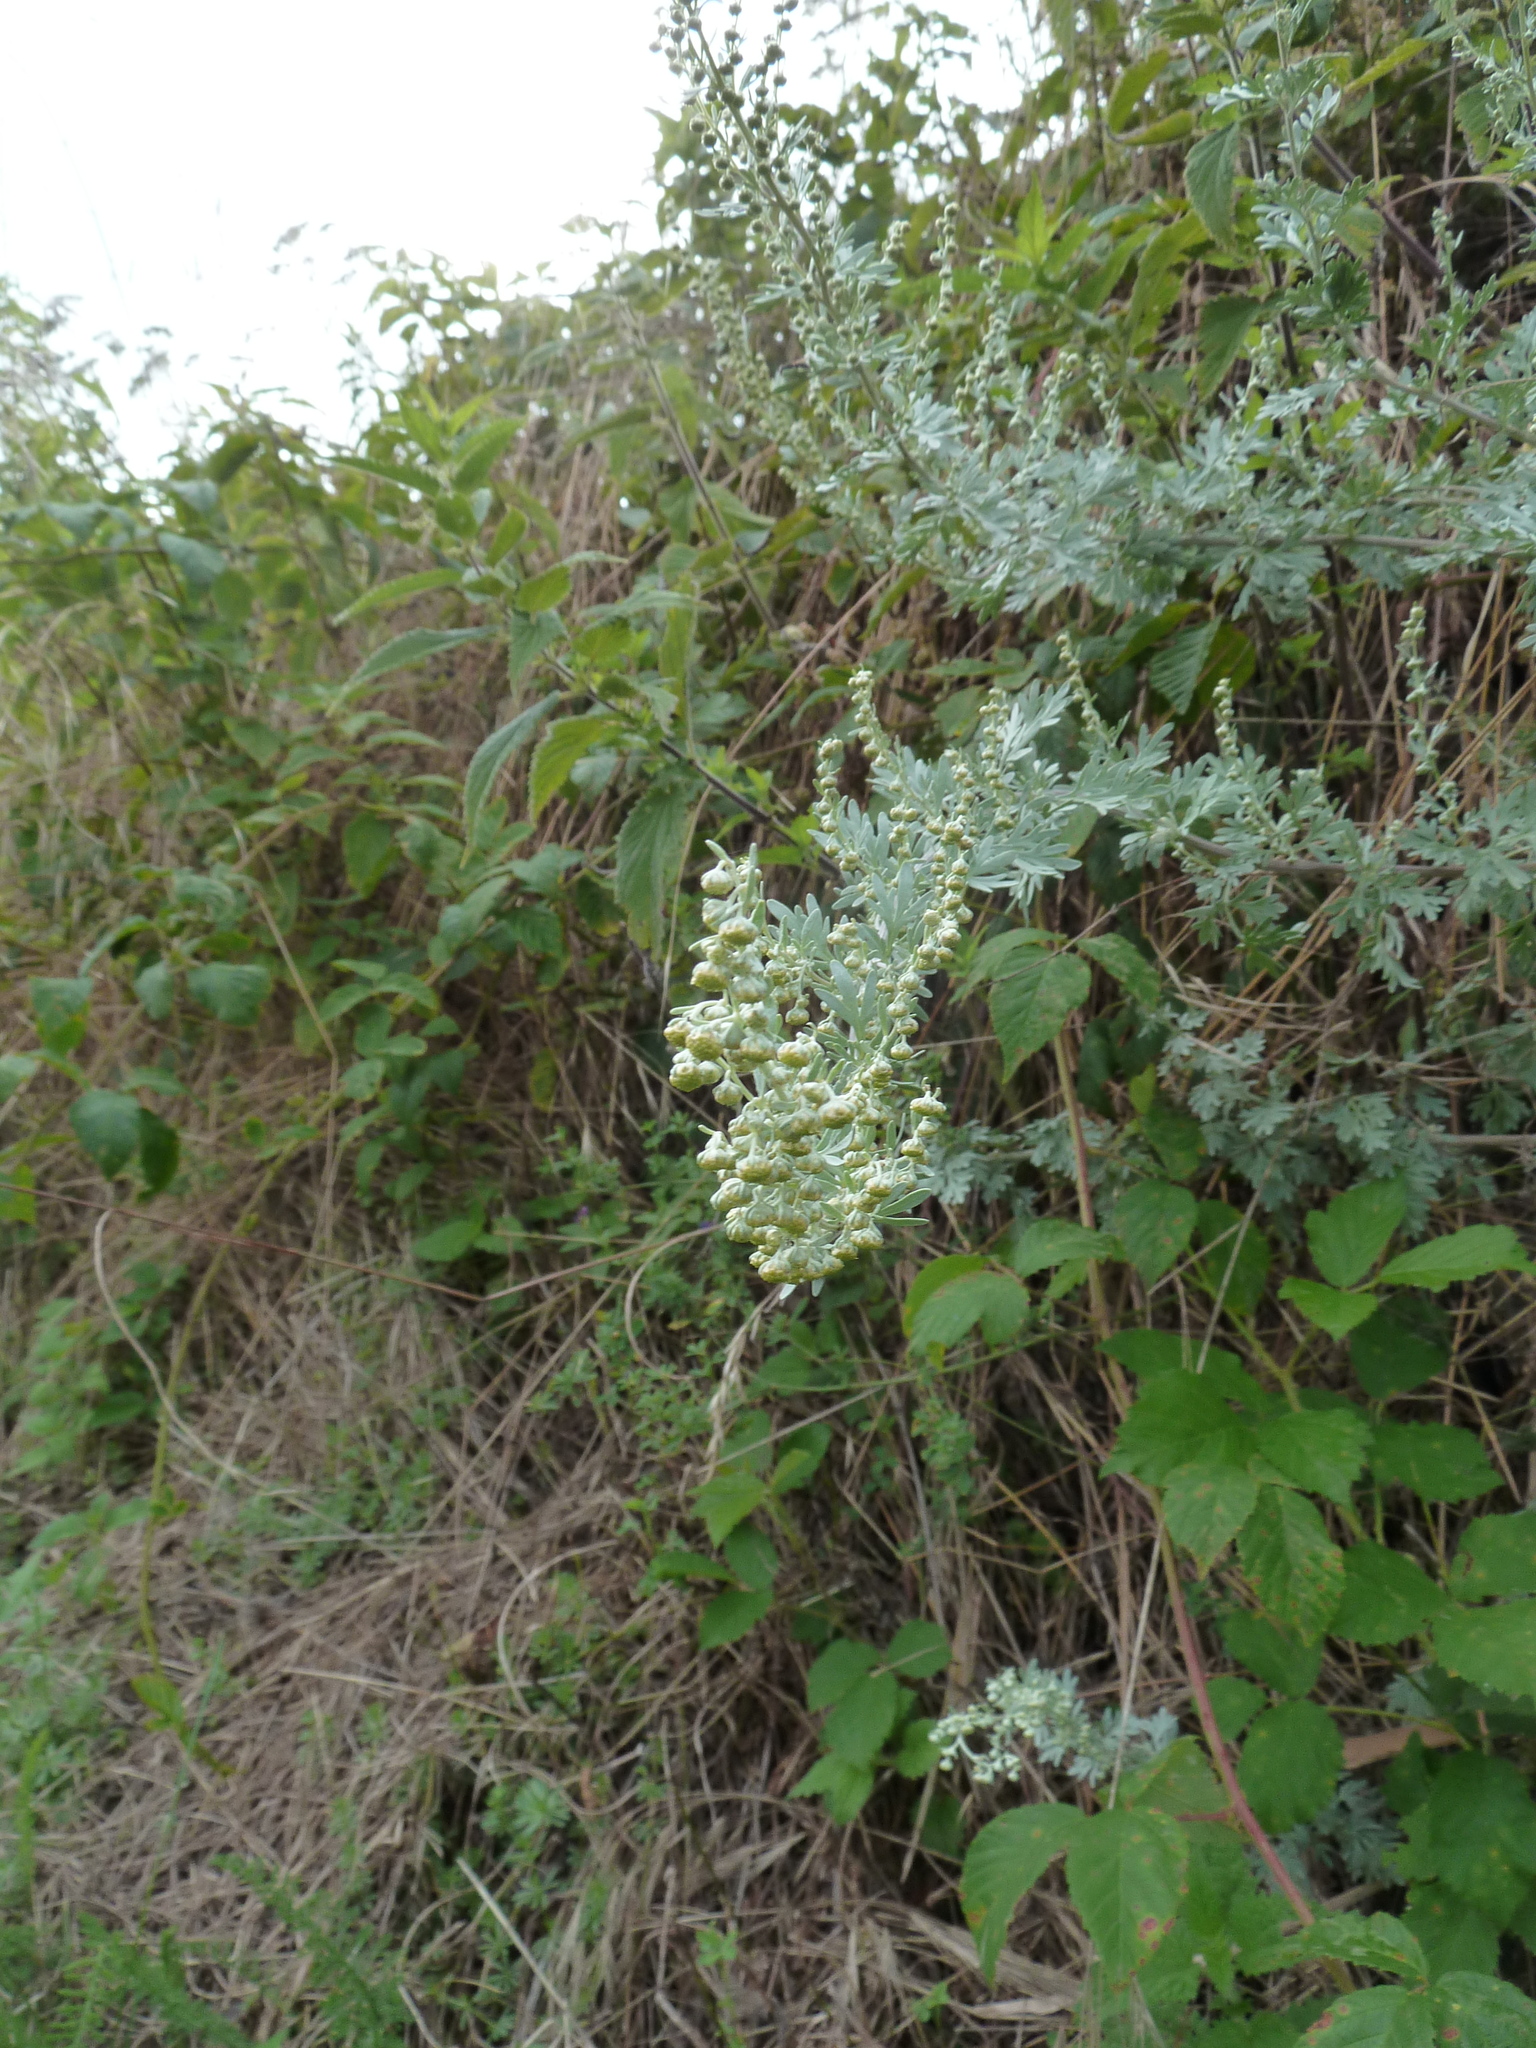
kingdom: Plantae
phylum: Tracheophyta
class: Magnoliopsida
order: Asterales
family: Asteraceae
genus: Artemisia
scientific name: Artemisia absinthium
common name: Wormwood
